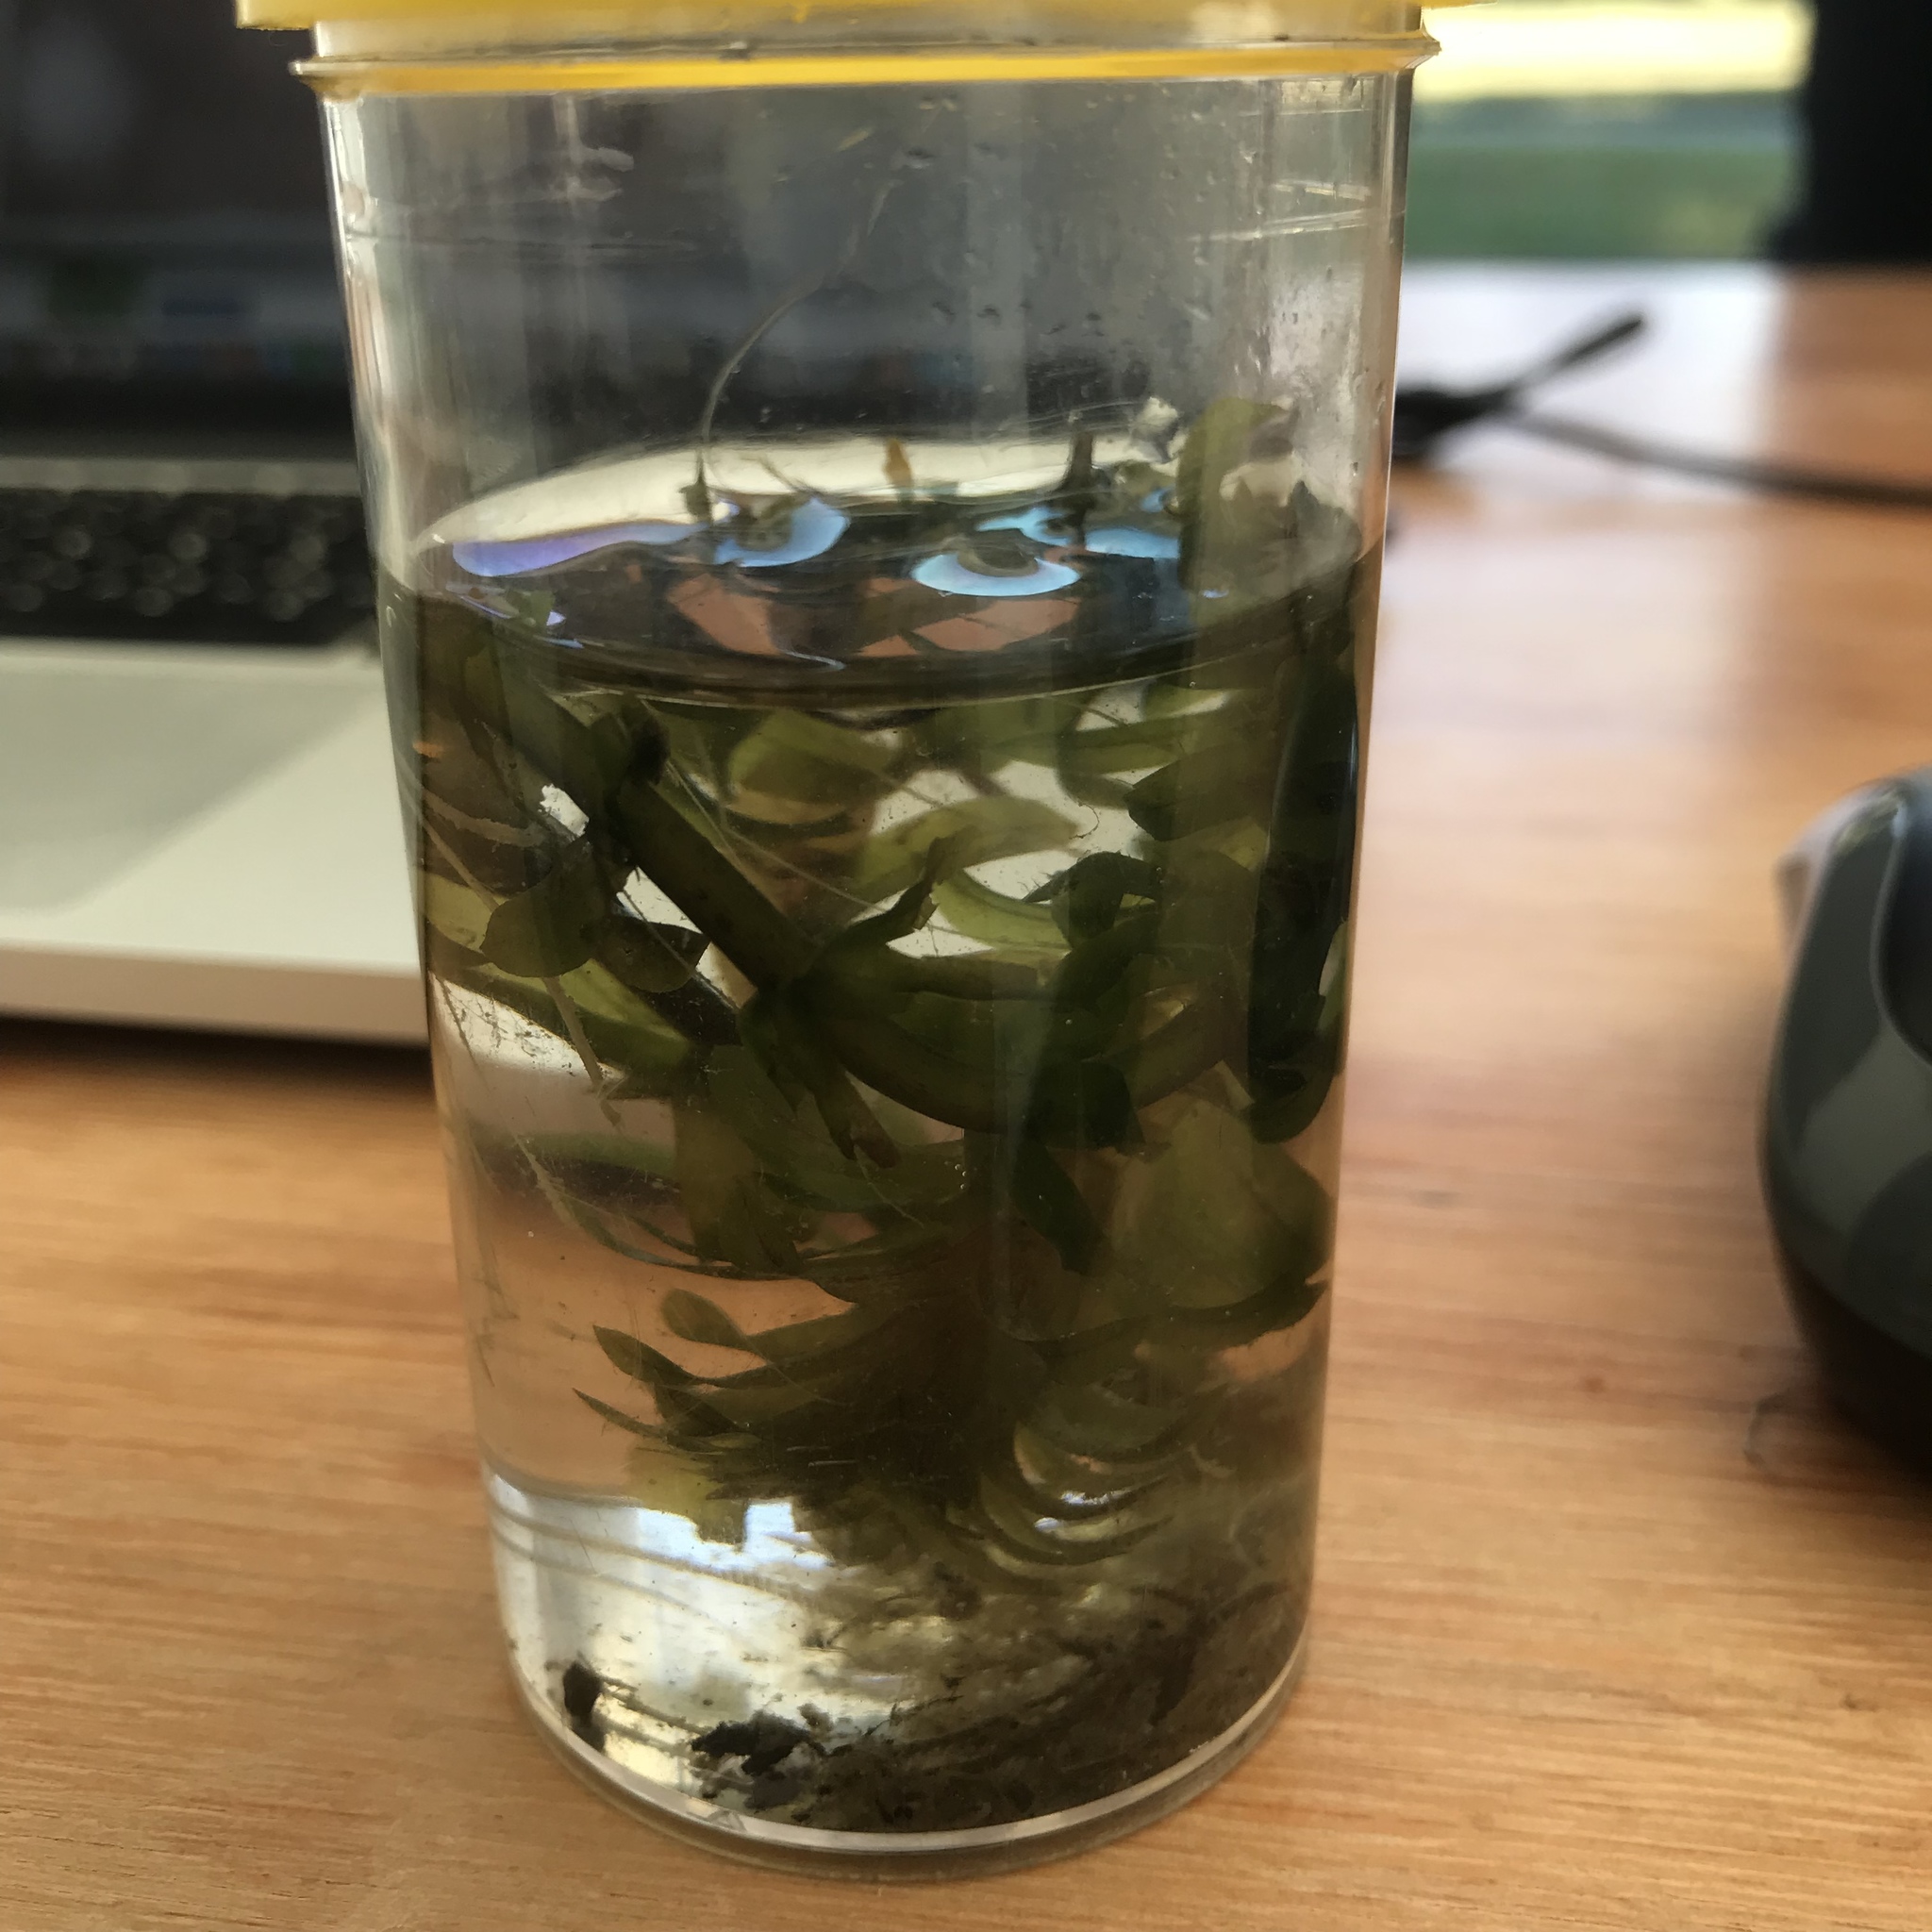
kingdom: Plantae
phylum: Tracheophyta
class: Liliopsida
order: Alismatales
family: Hydrocharitaceae
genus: Elodea
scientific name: Elodea densa
